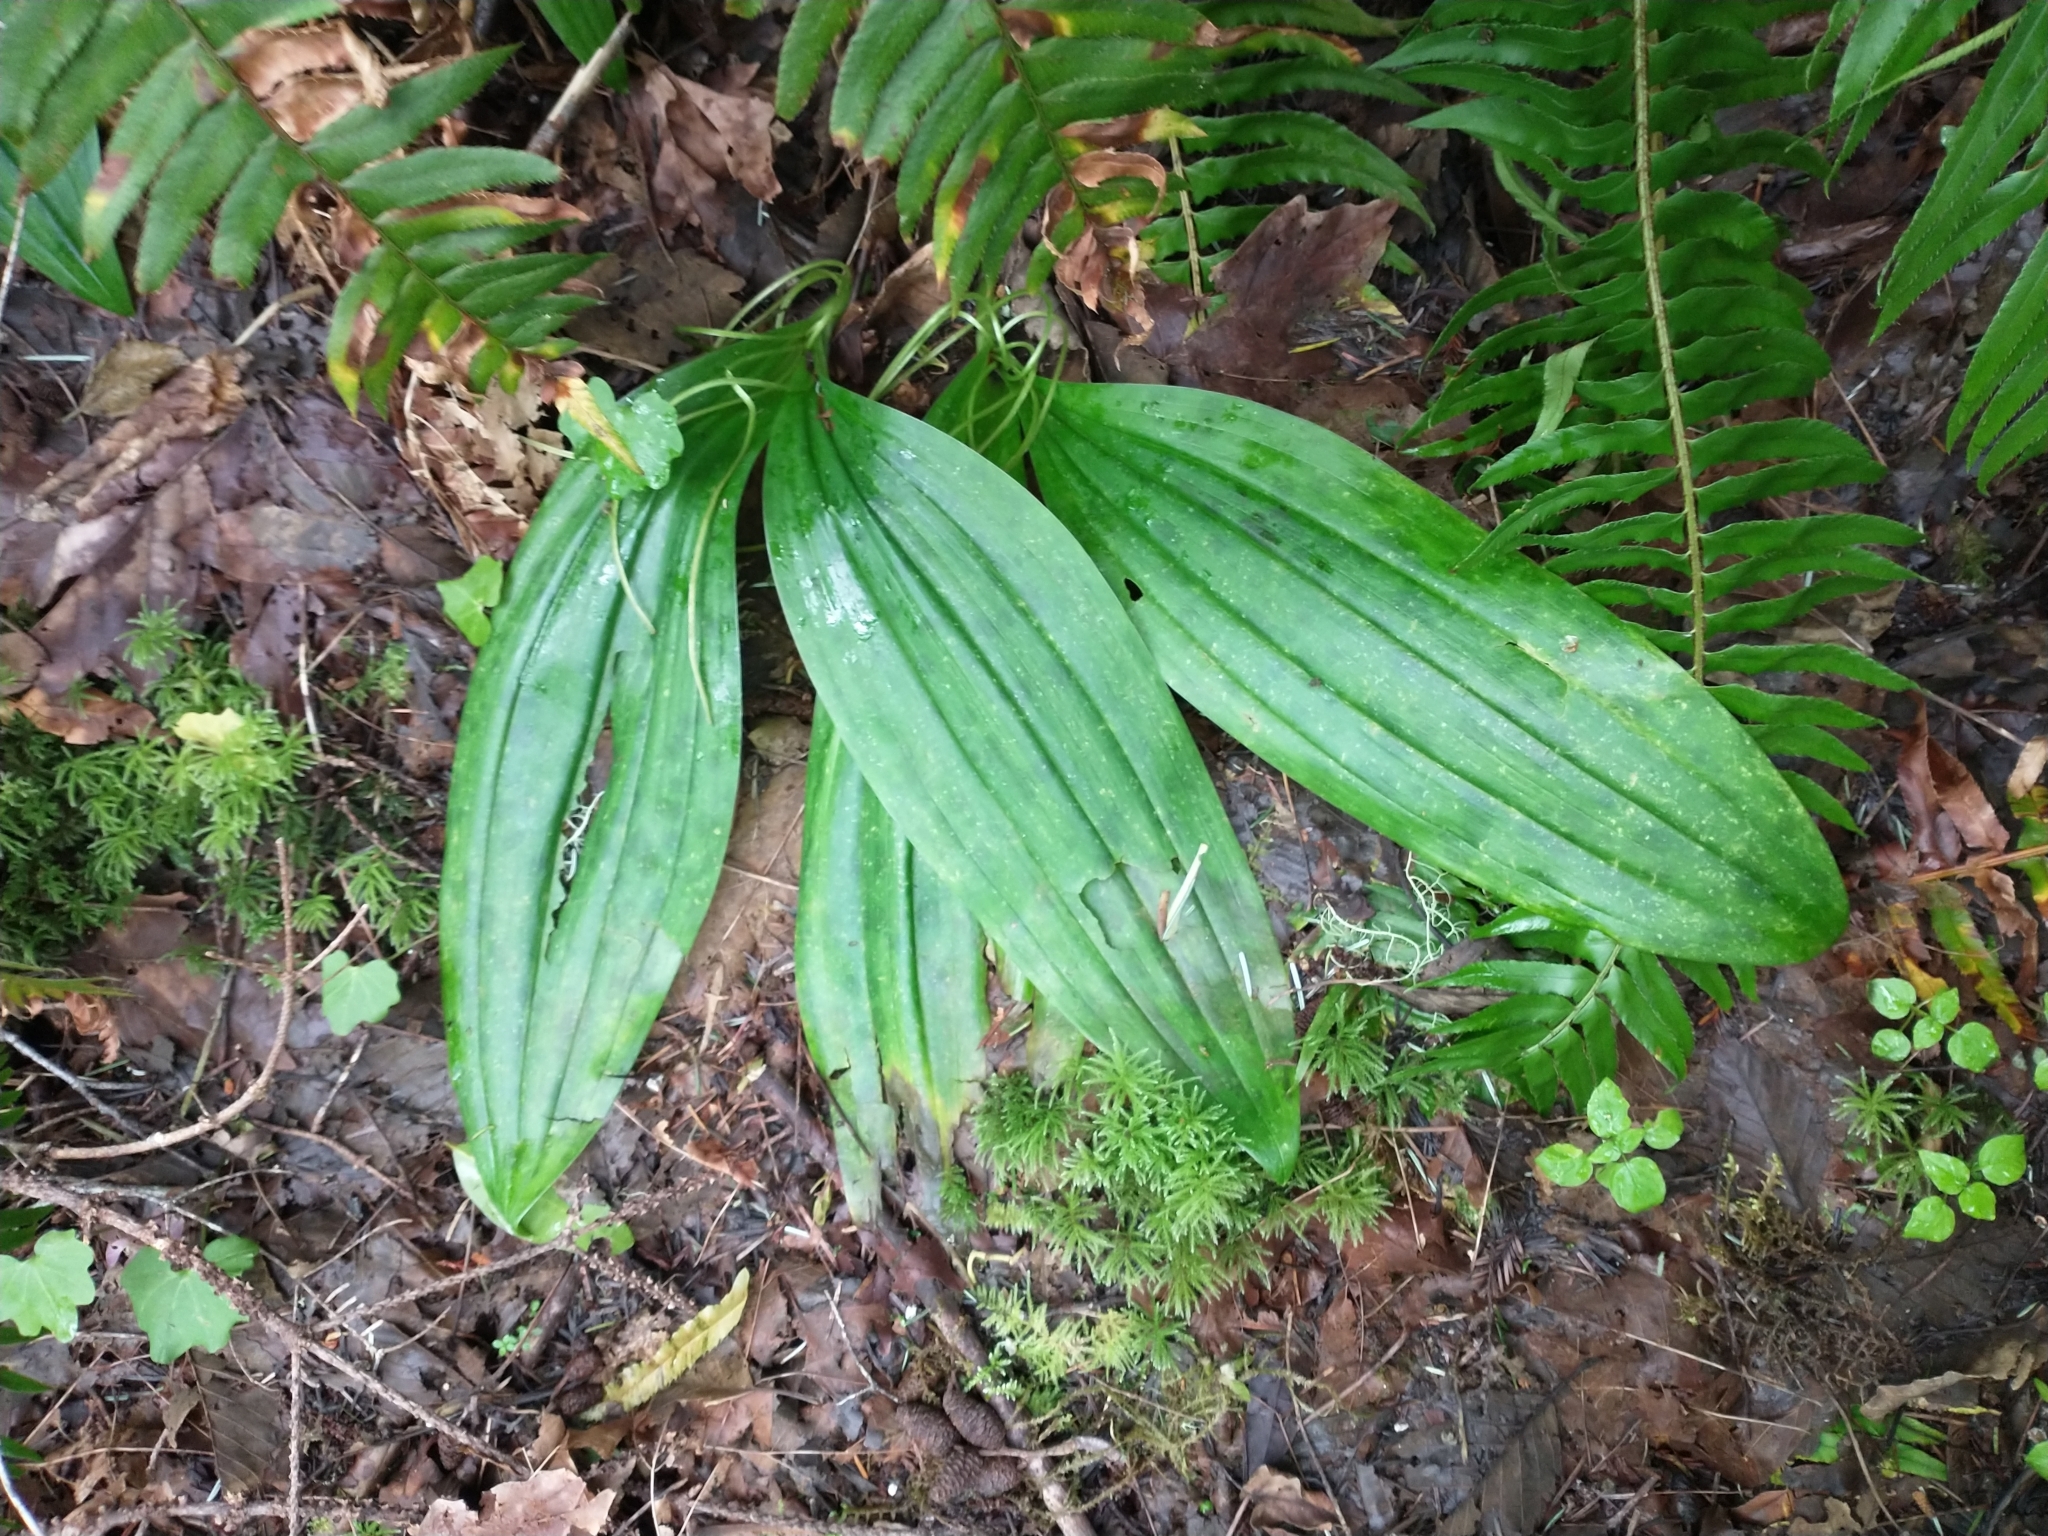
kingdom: Plantae
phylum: Tracheophyta
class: Liliopsida
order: Liliales
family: Liliaceae
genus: Scoliopus
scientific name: Scoliopus bigelovii
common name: Foetid adder's-tongue
